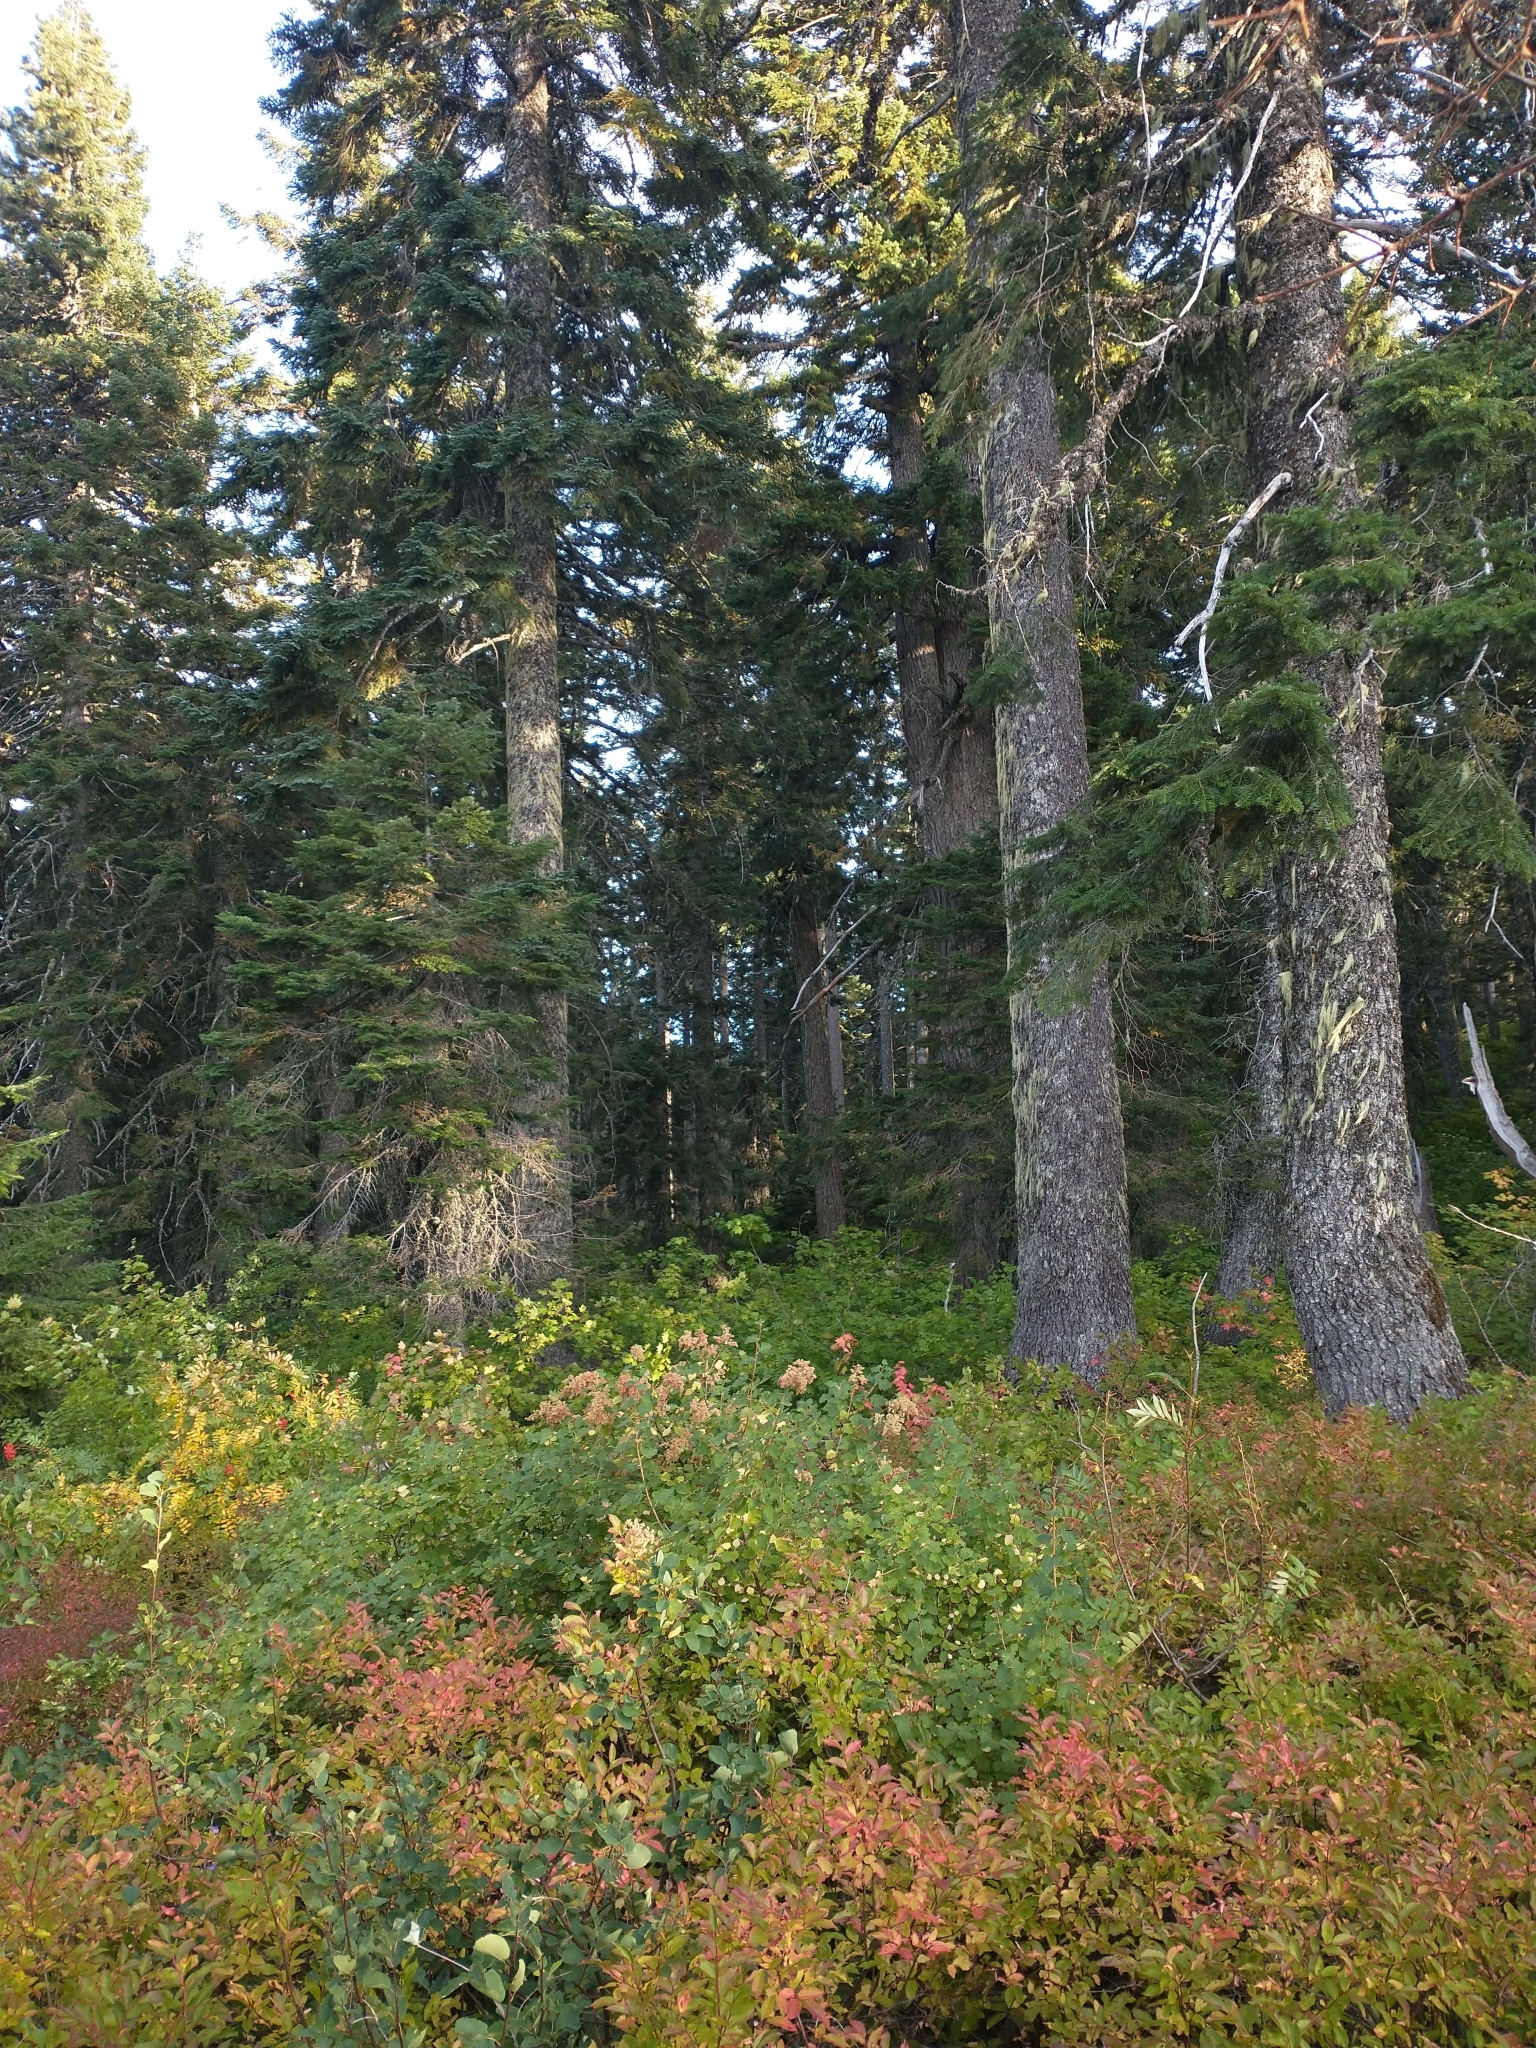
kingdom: Plantae
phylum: Tracheophyta
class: Pinopsida
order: Pinales
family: Pinaceae
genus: Abies
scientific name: Abies procera
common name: Noble fir
